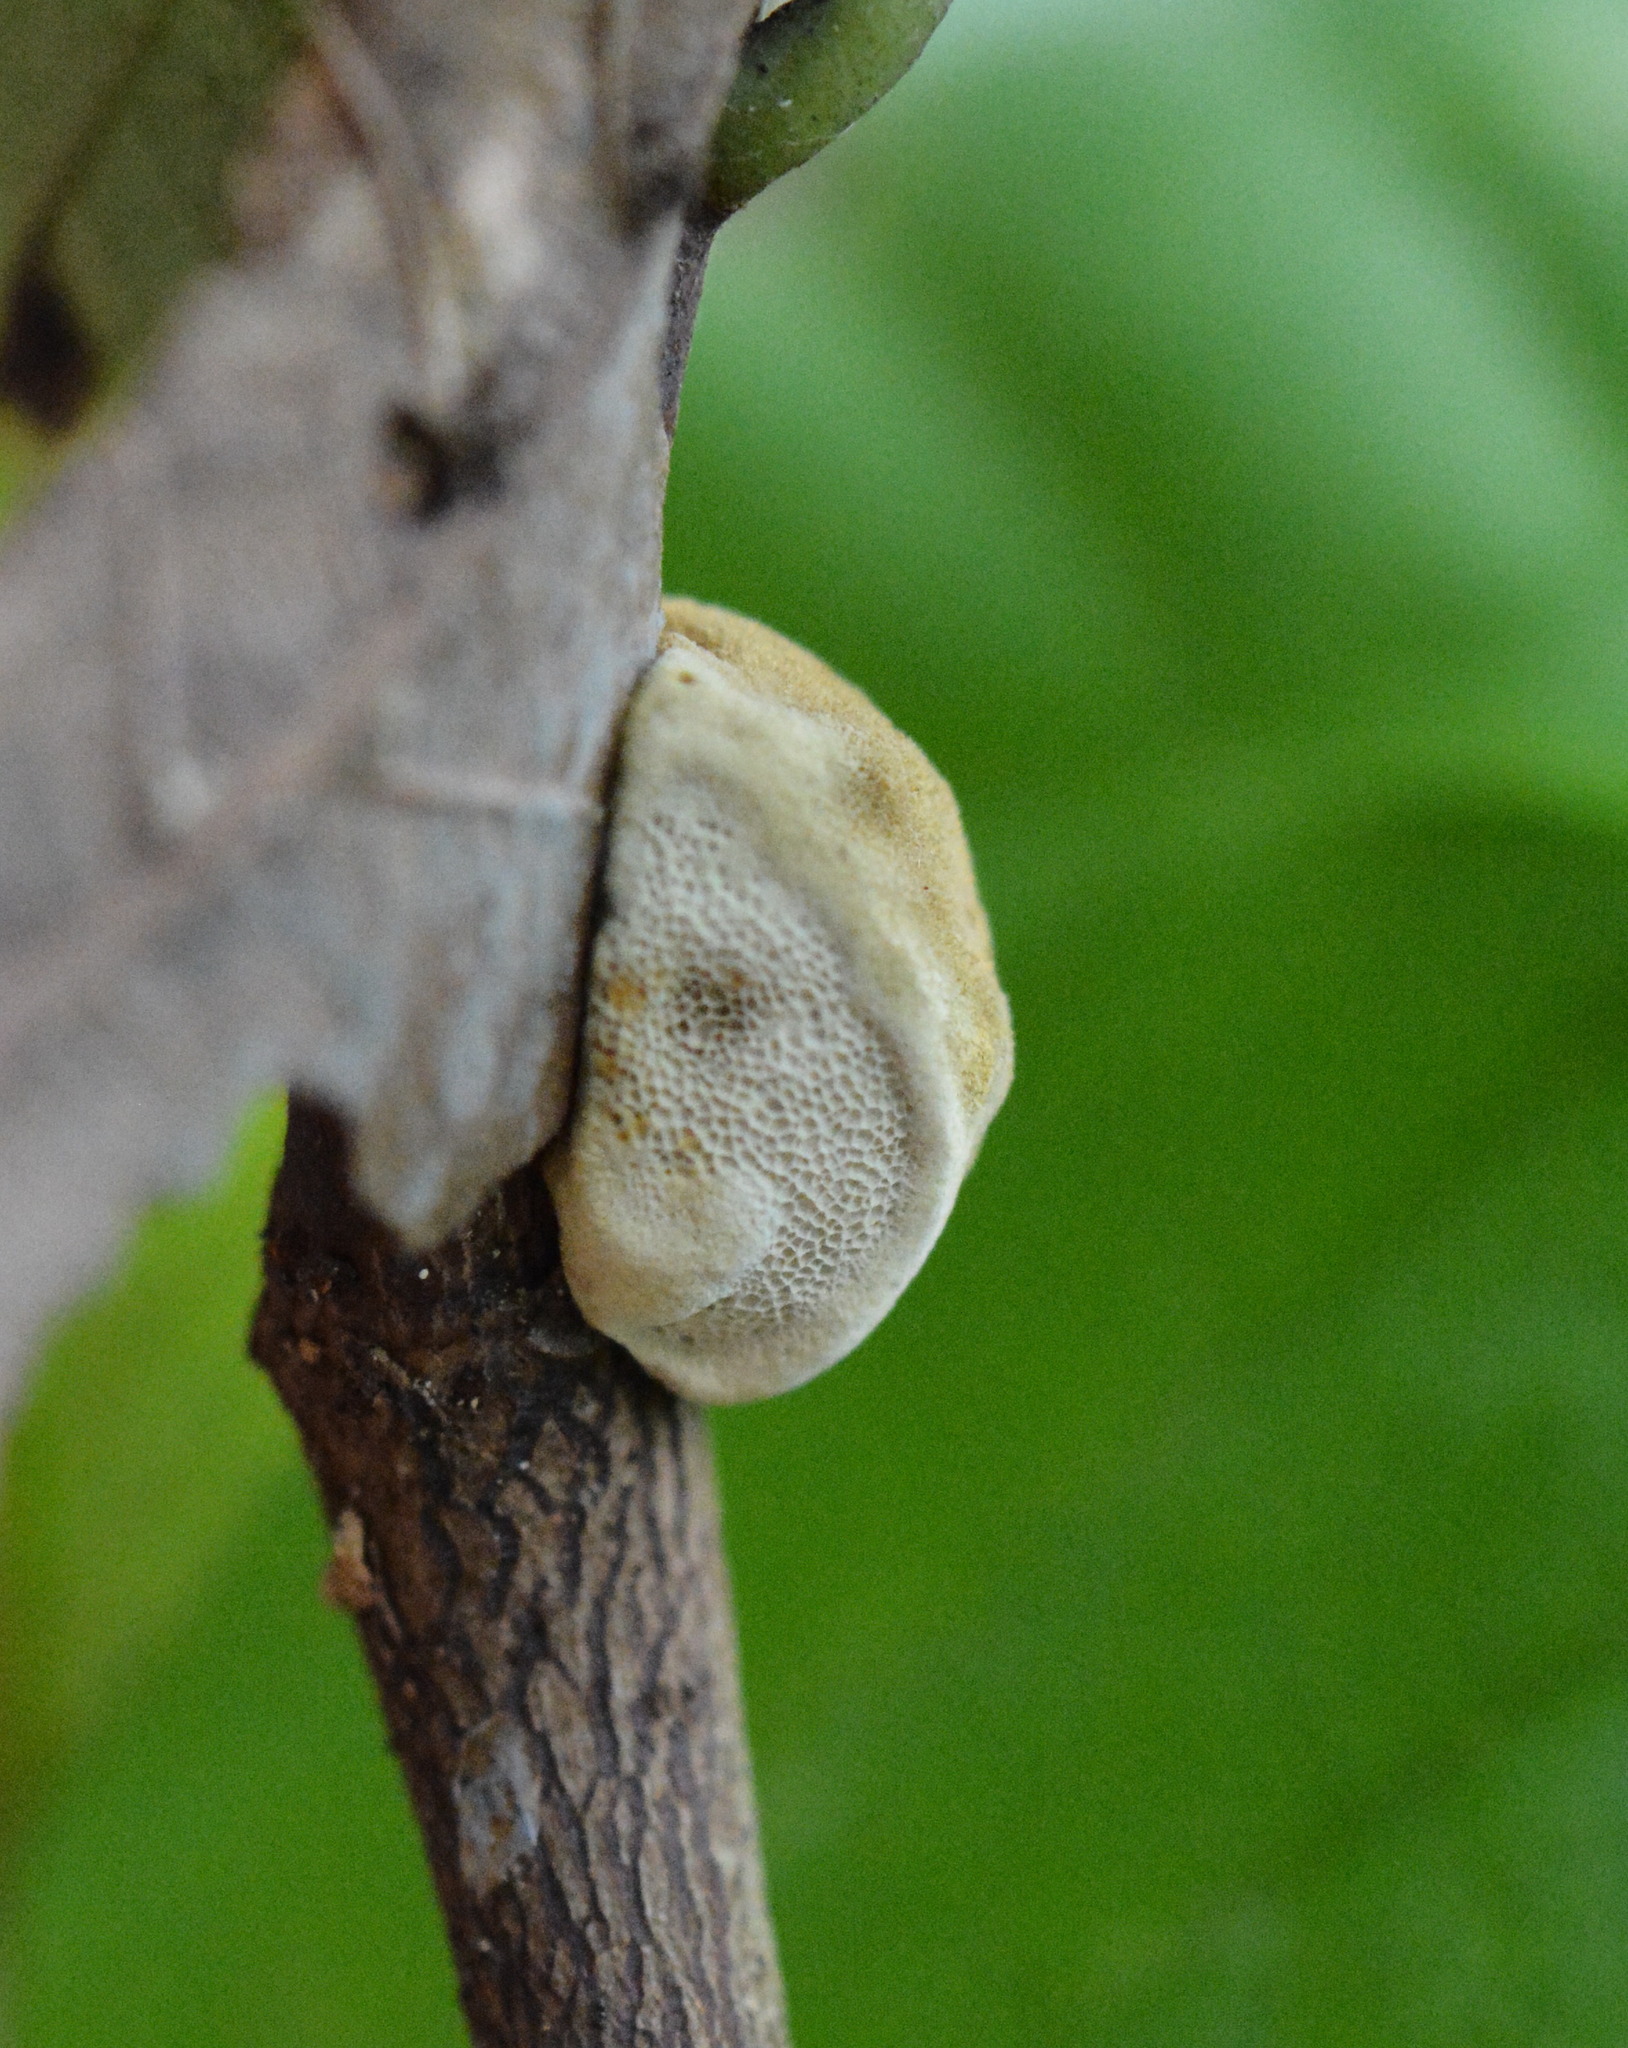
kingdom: Fungi
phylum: Basidiomycota
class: Agaricomycetes
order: Hymenochaetales
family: Hymenochaetaceae
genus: Phylloporia
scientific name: Phylloporia amplectens
